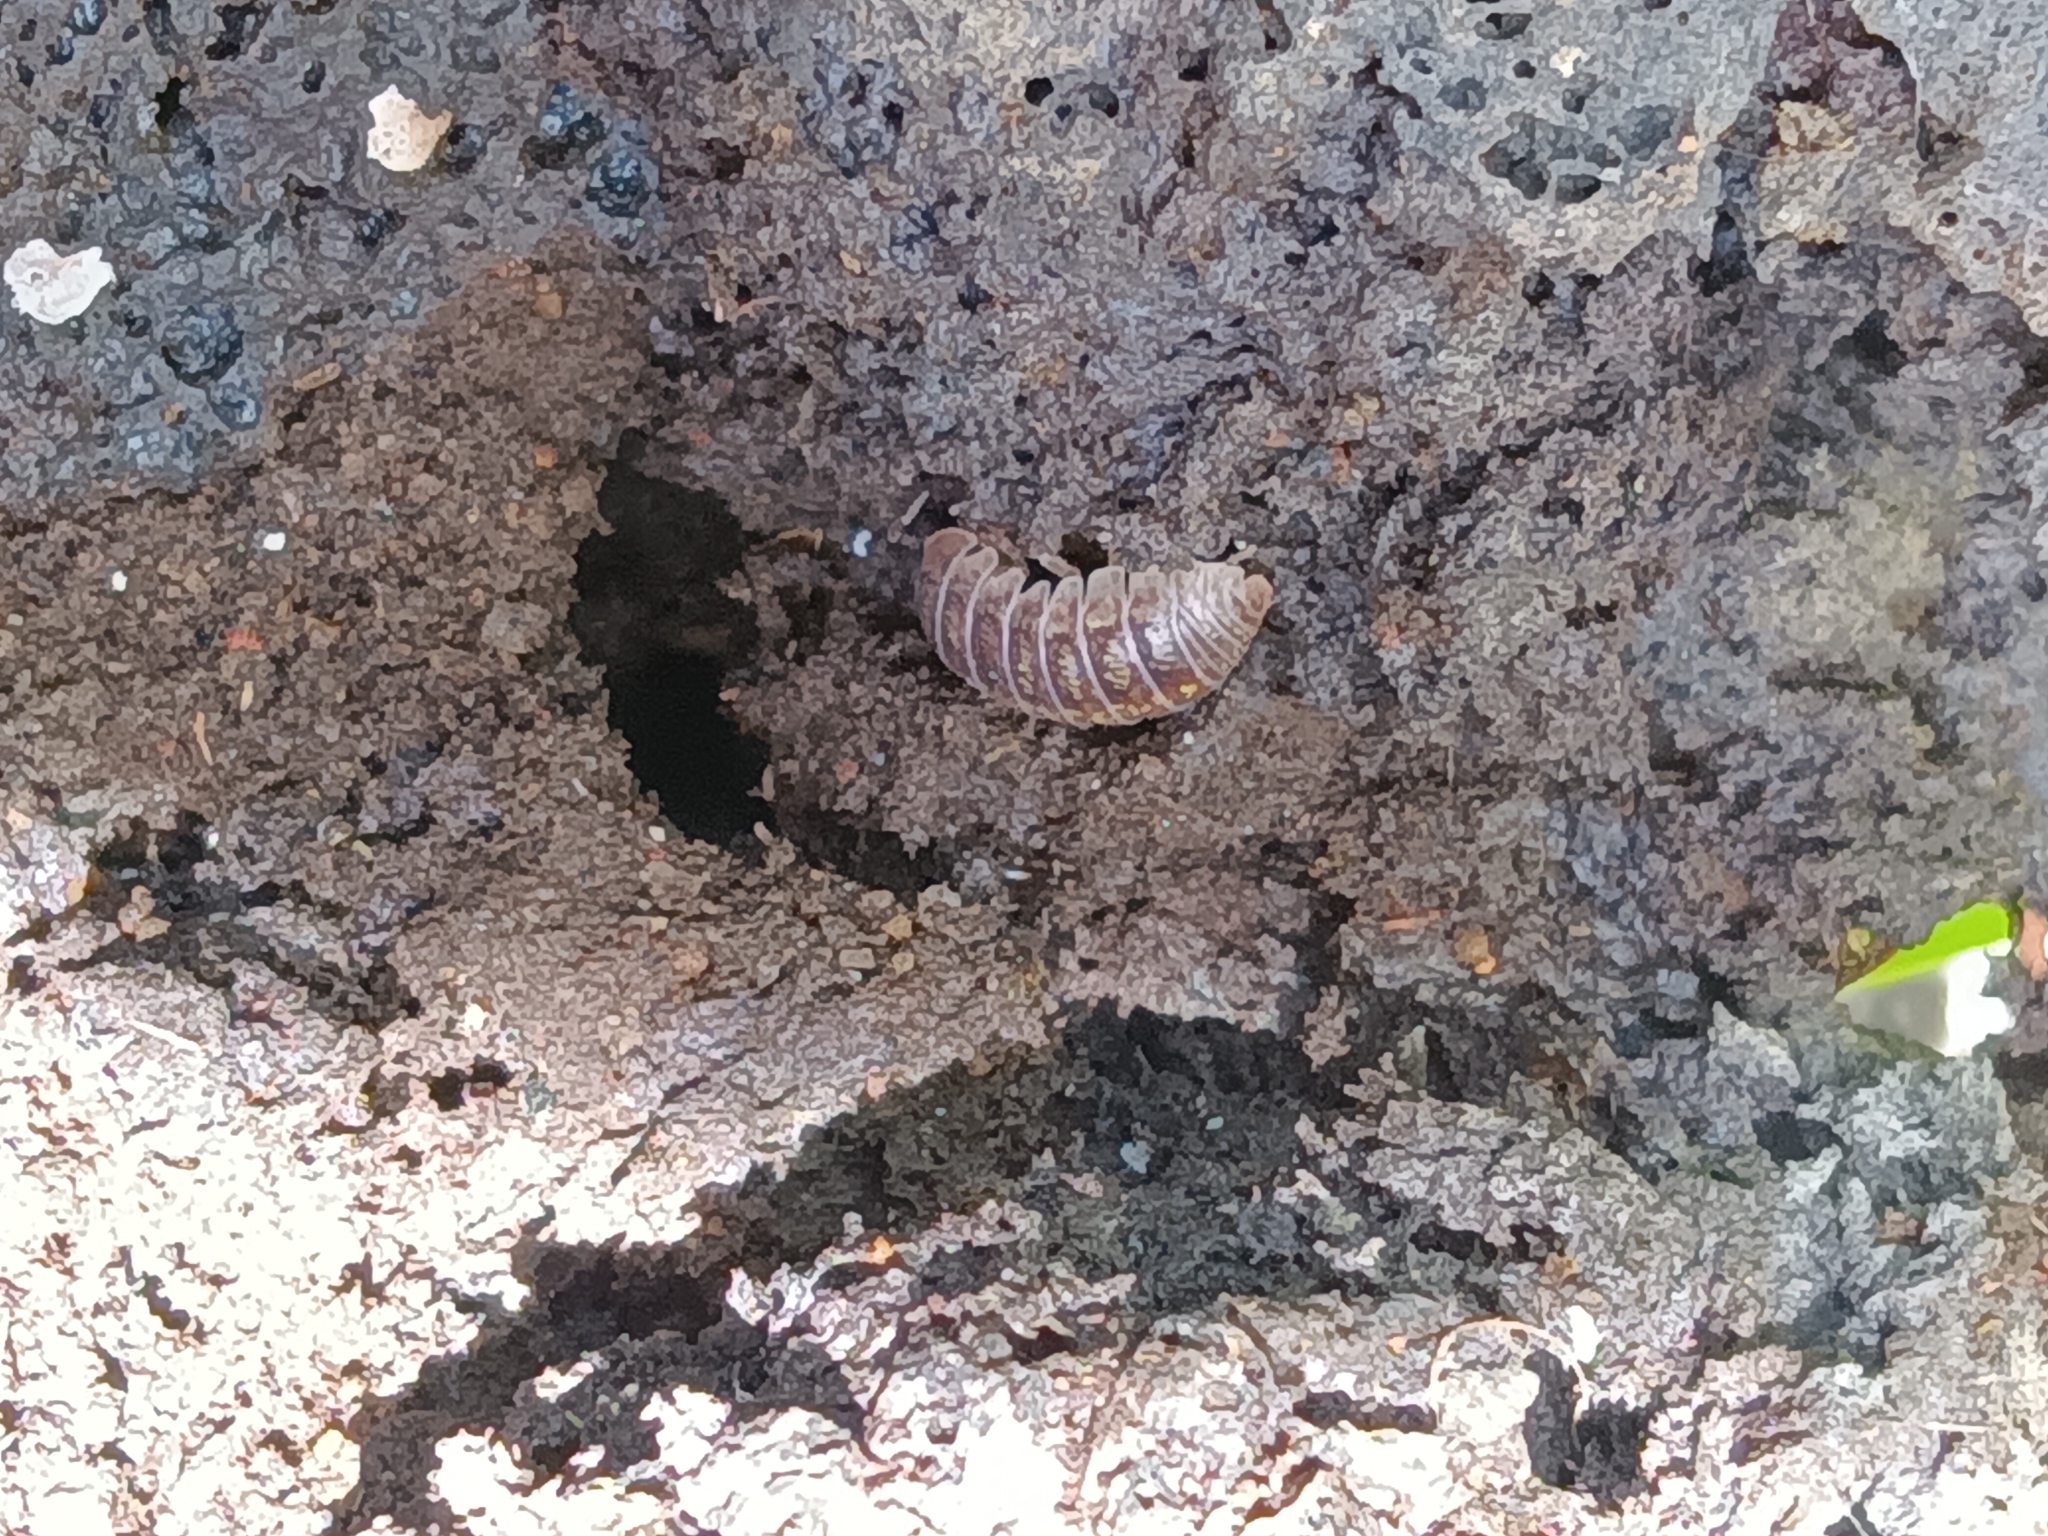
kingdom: Animalia
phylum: Arthropoda
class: Malacostraca
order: Isopoda
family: Armadillidiidae
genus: Armadillidium
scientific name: Armadillidium vulgare
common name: Common pill woodlouse
